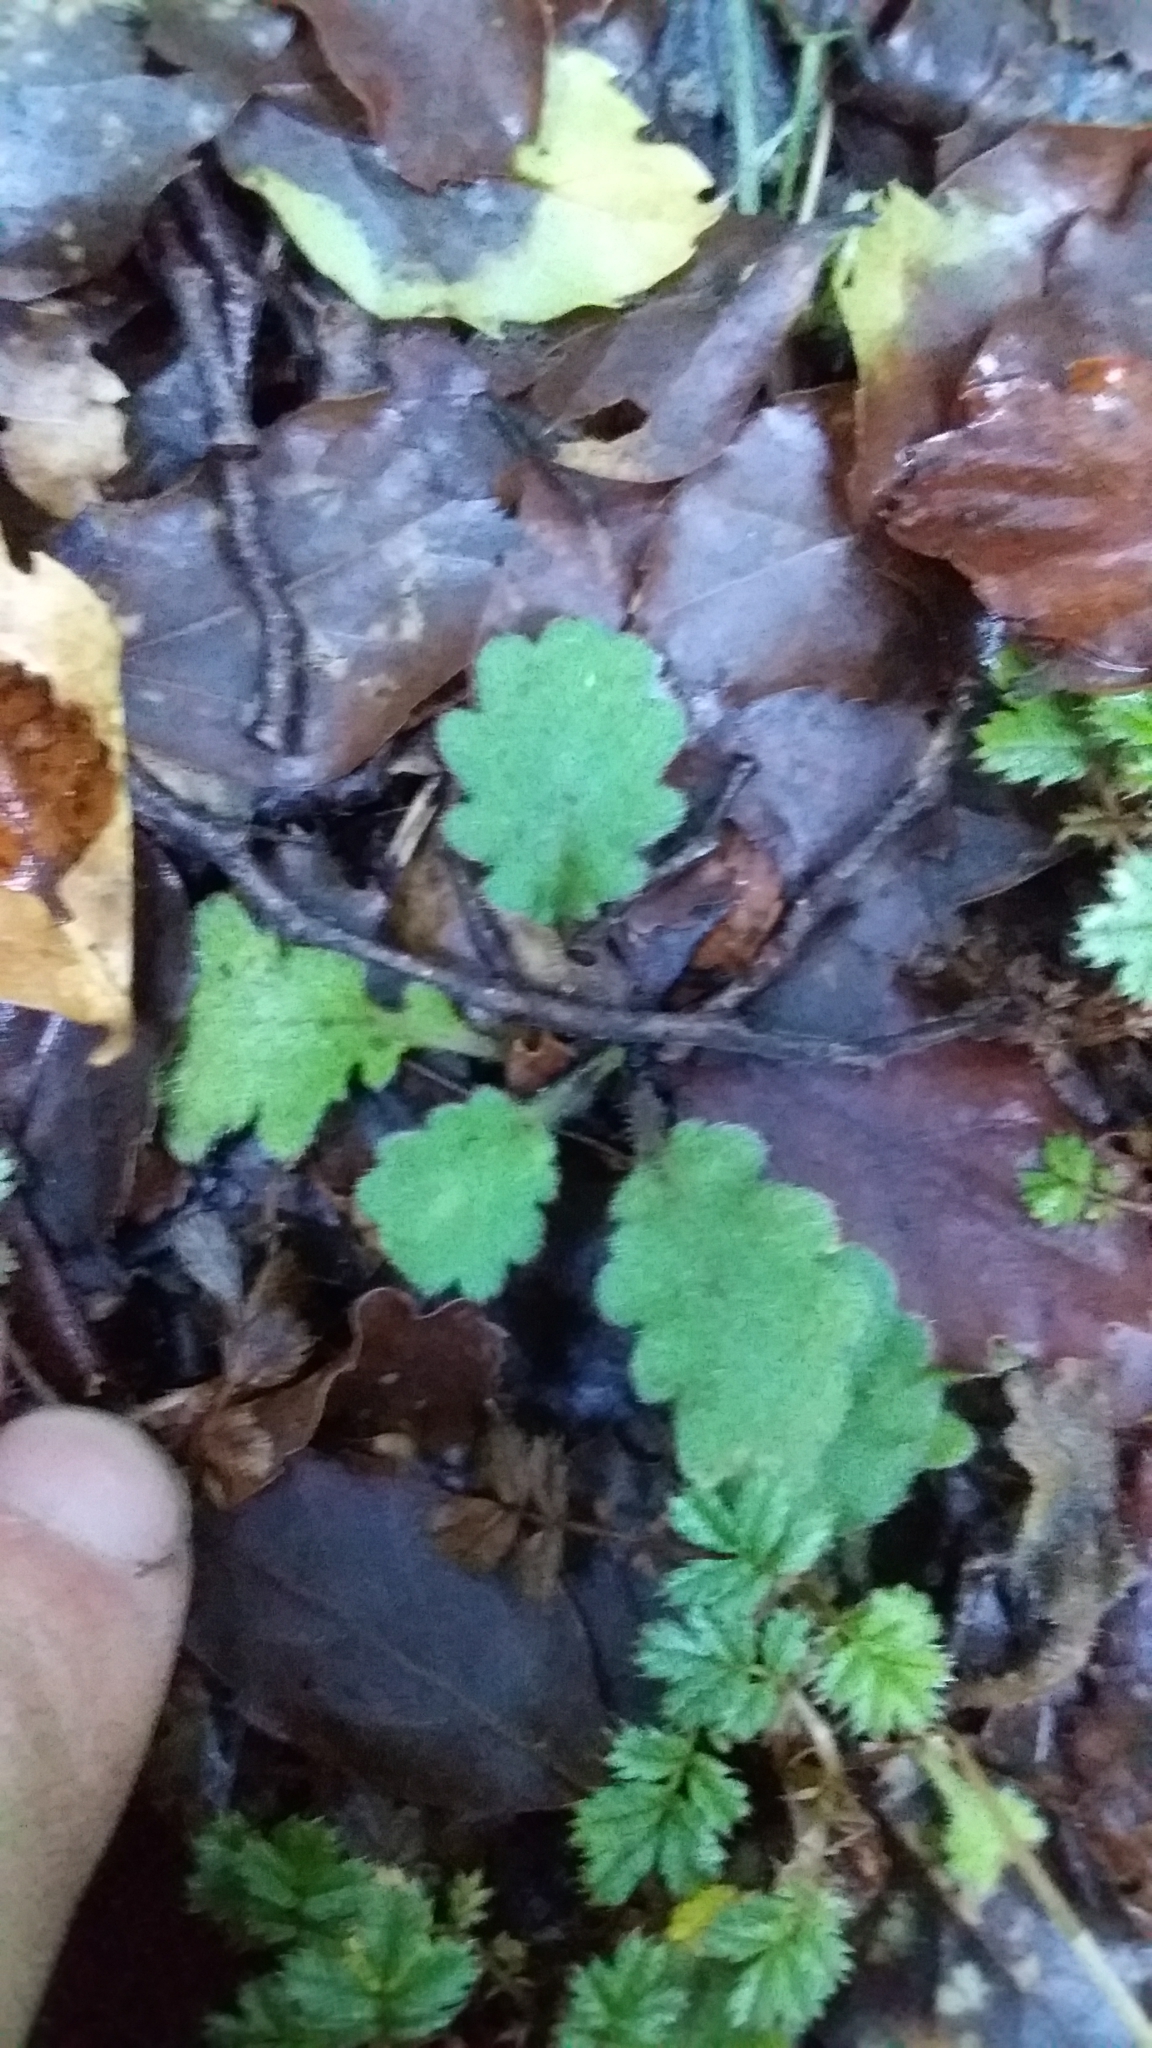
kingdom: Plantae
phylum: Tracheophyta
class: Magnoliopsida
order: Asterales
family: Asteraceae
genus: Lagenophora
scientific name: Lagenophora pinnatifida
